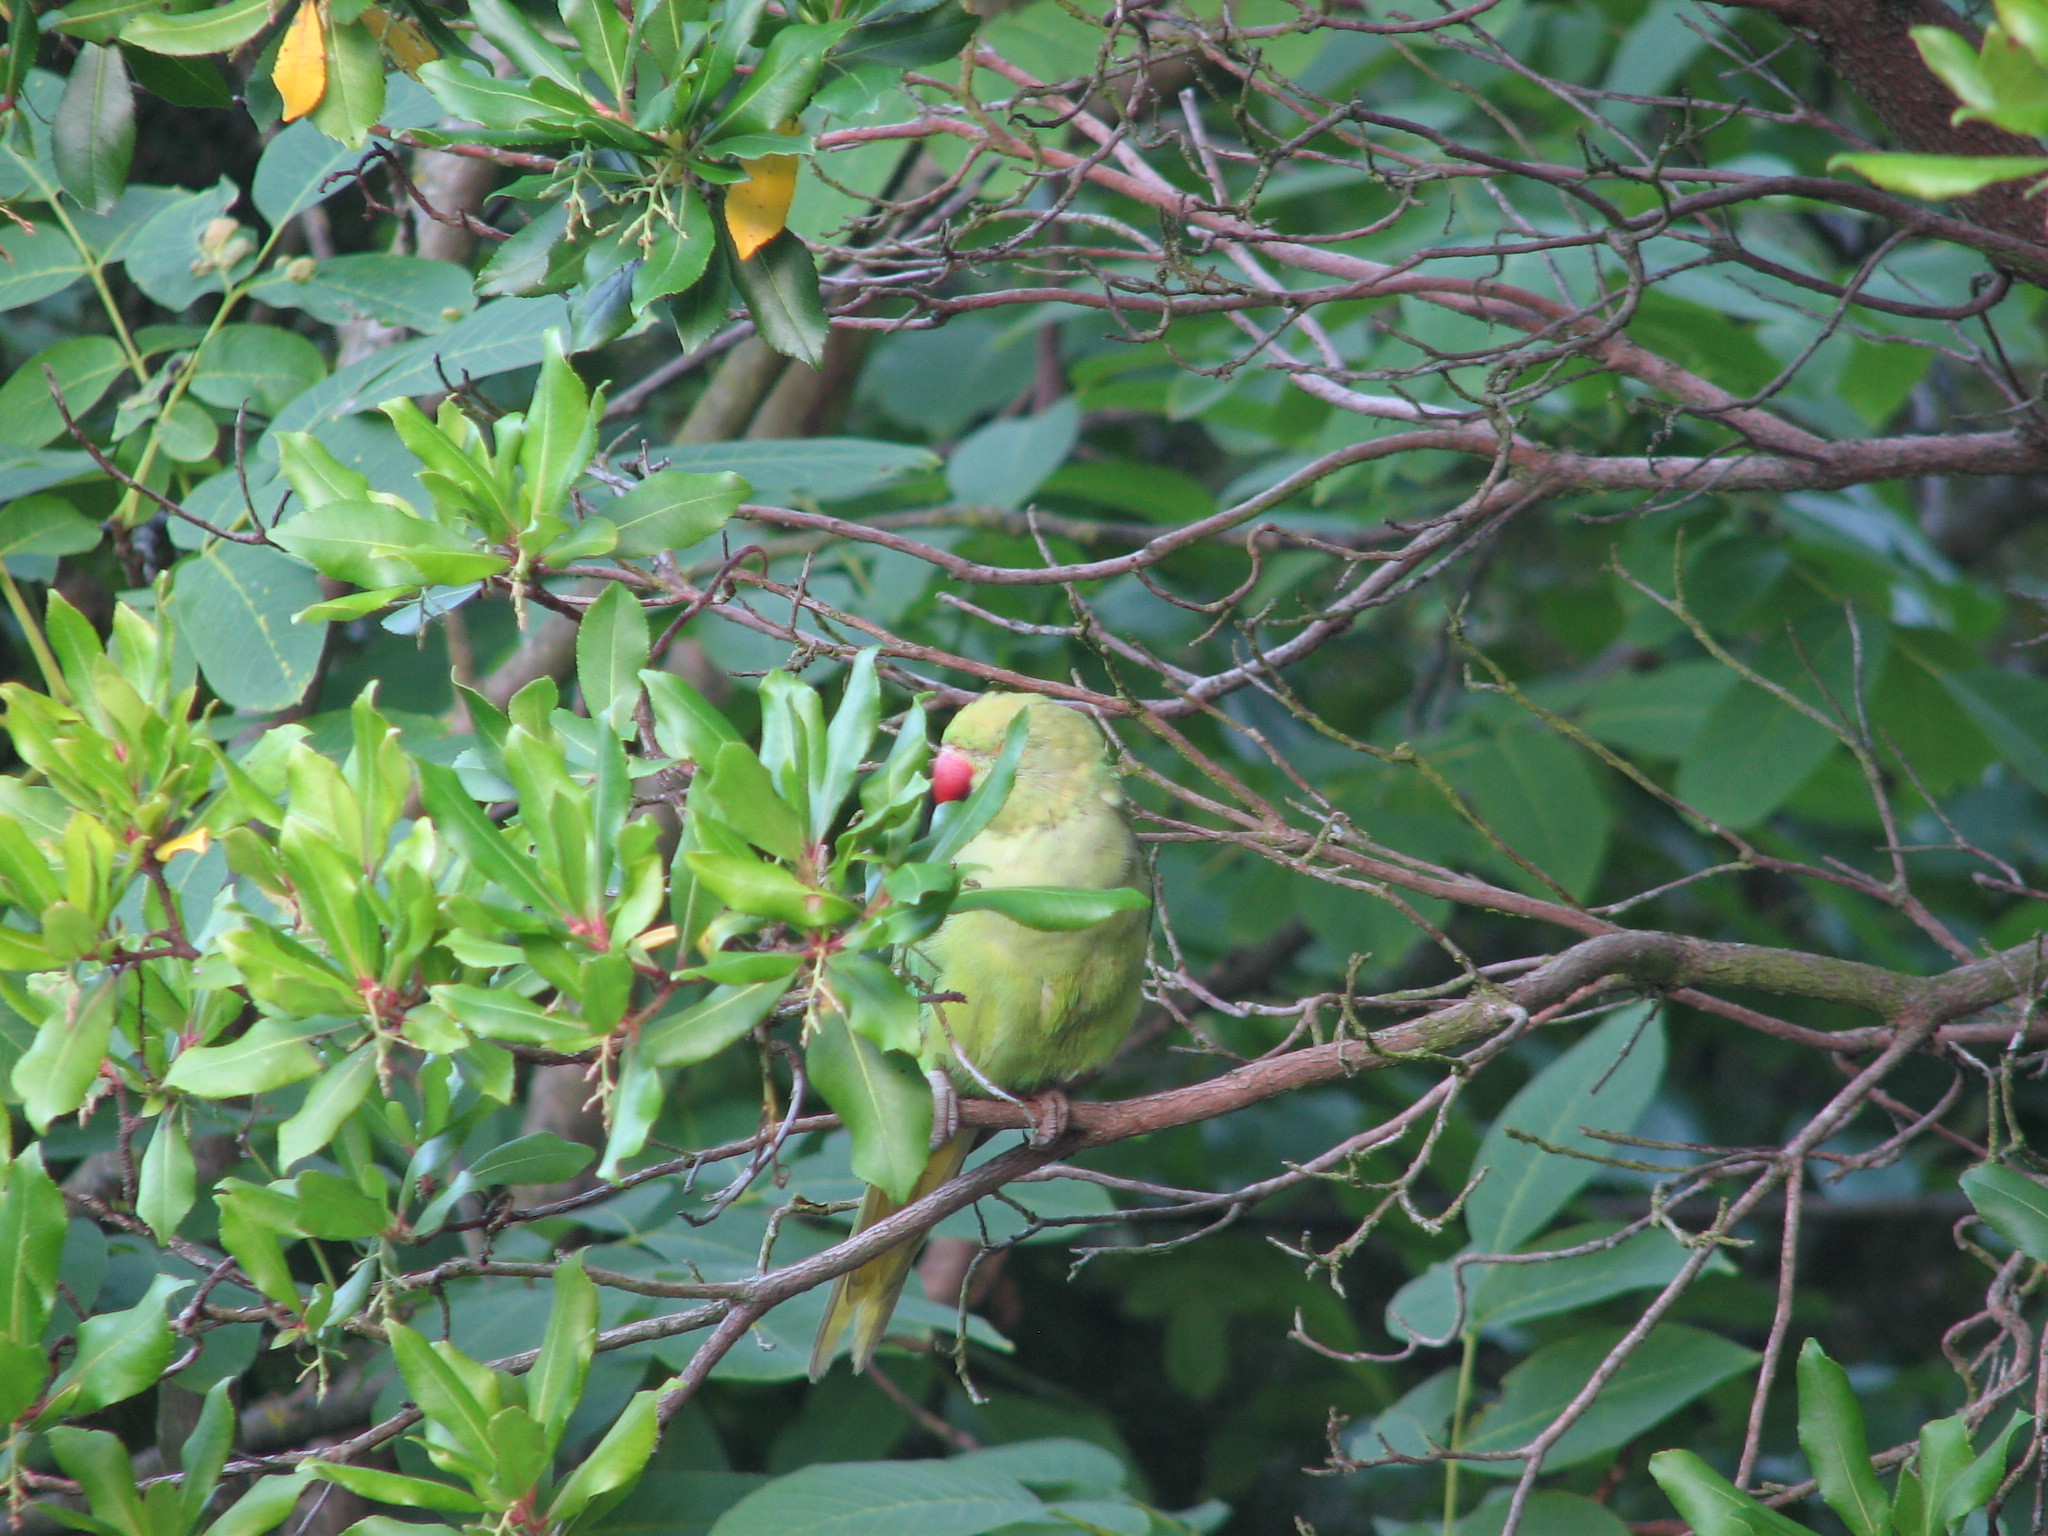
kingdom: Animalia
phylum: Chordata
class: Aves
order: Psittaciformes
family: Psittacidae
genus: Psittacula
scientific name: Psittacula krameri
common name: Rose-ringed parakeet
